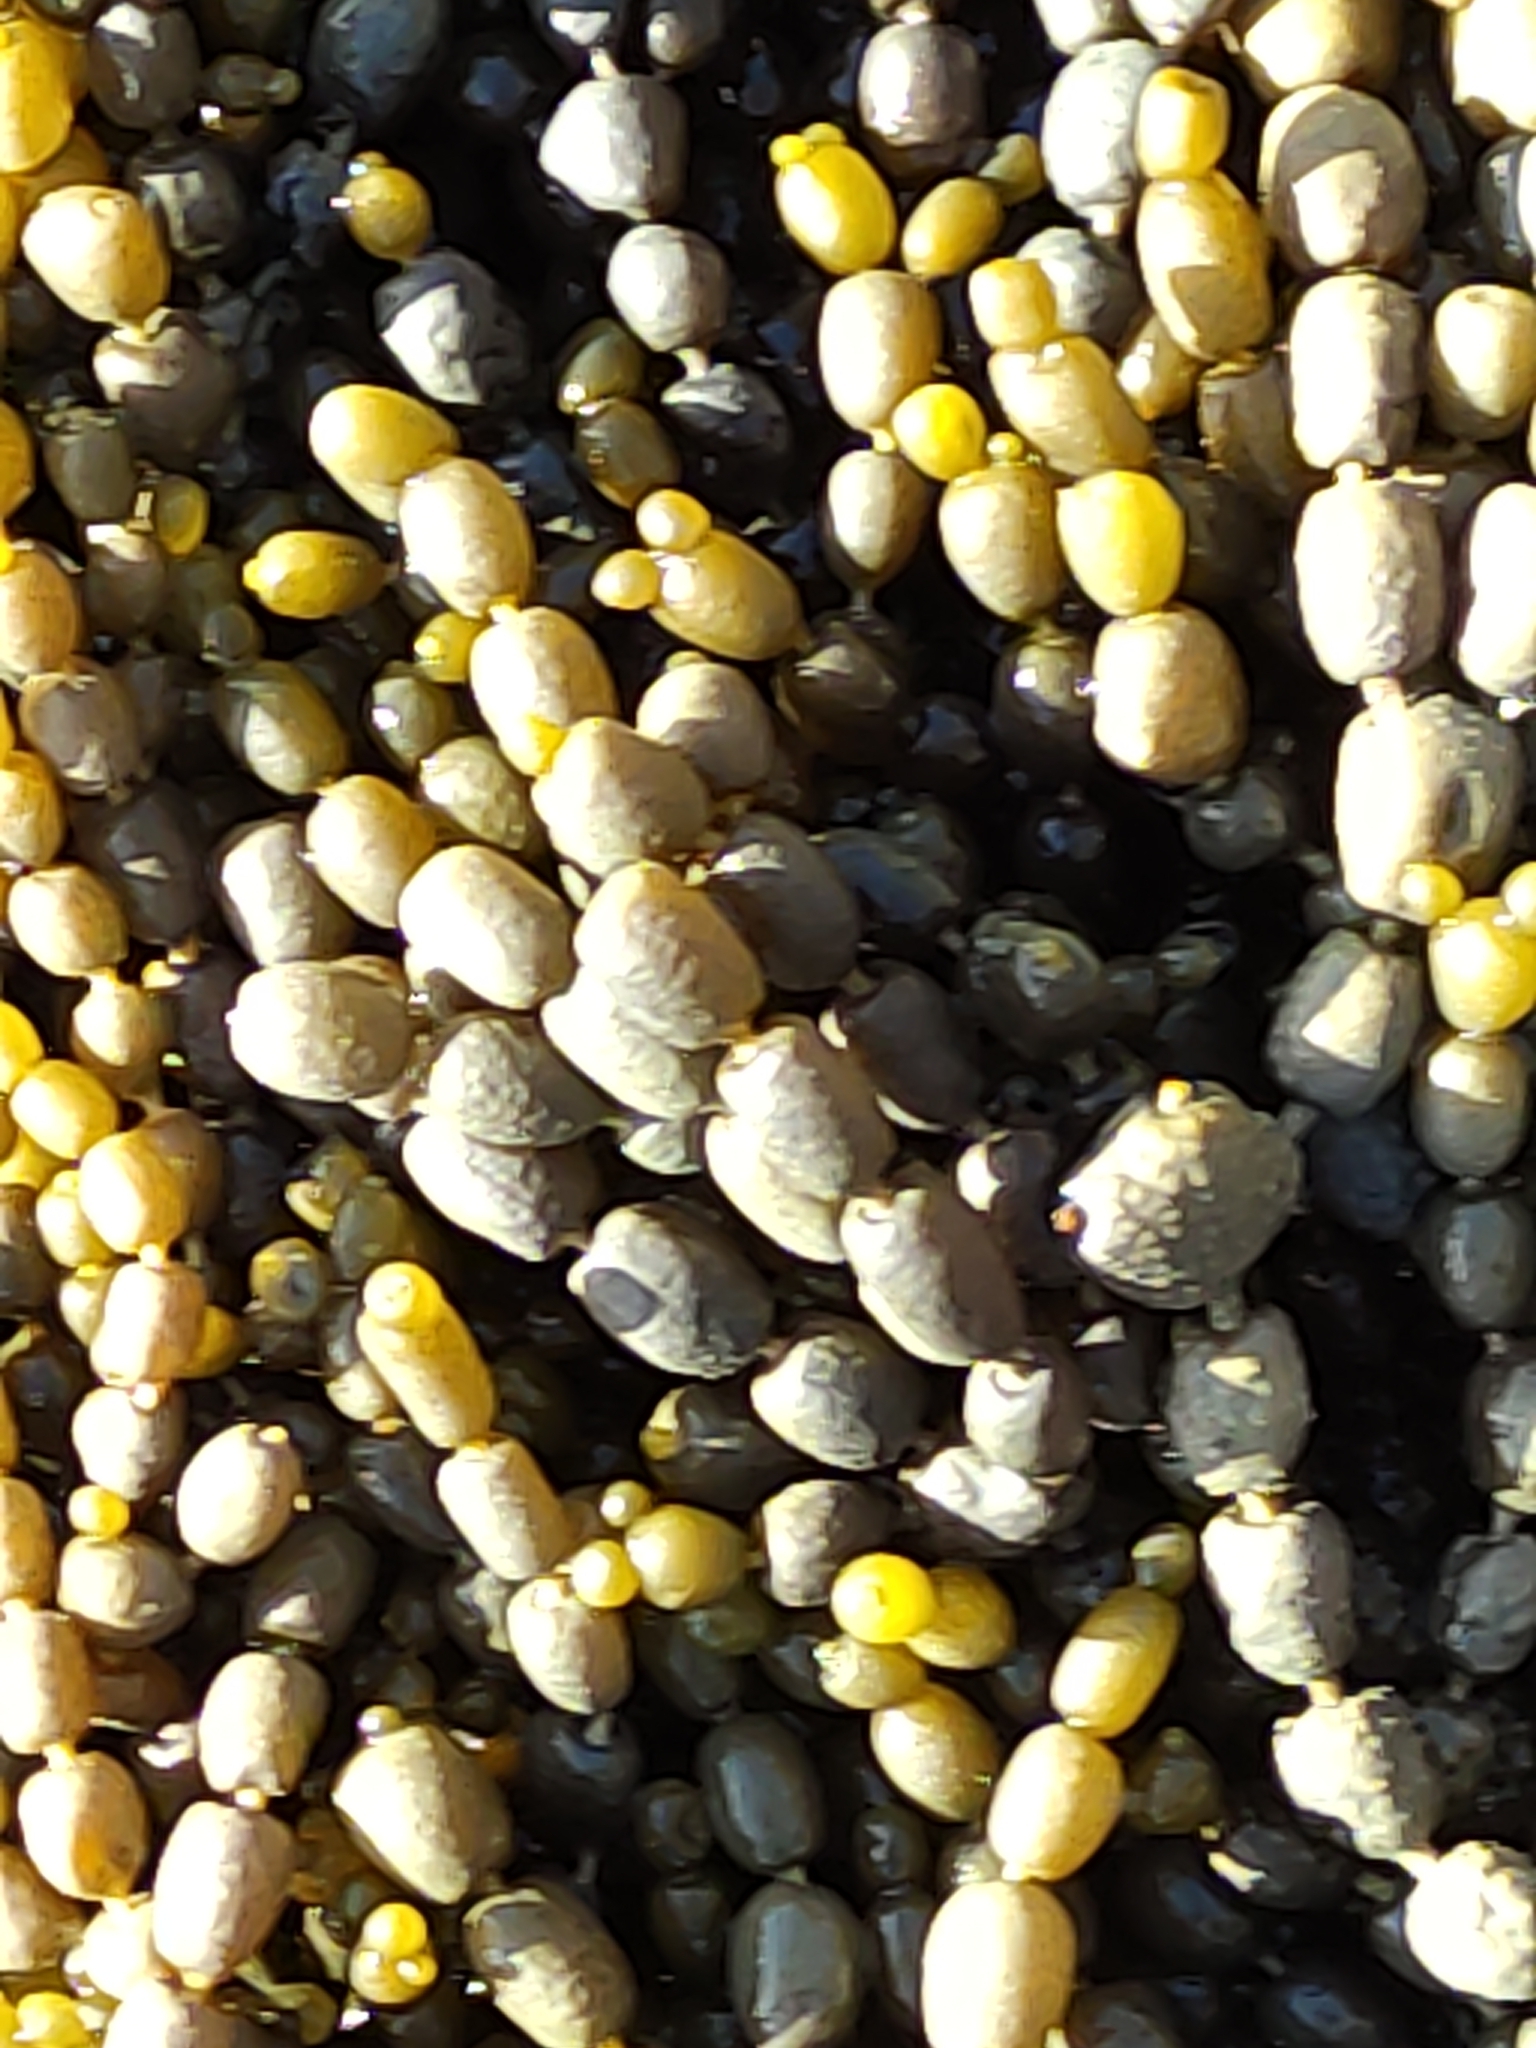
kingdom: Chromista
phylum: Ochrophyta
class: Phaeophyceae
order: Fucales
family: Hormosiraceae
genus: Hormosira
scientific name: Hormosira banksii
